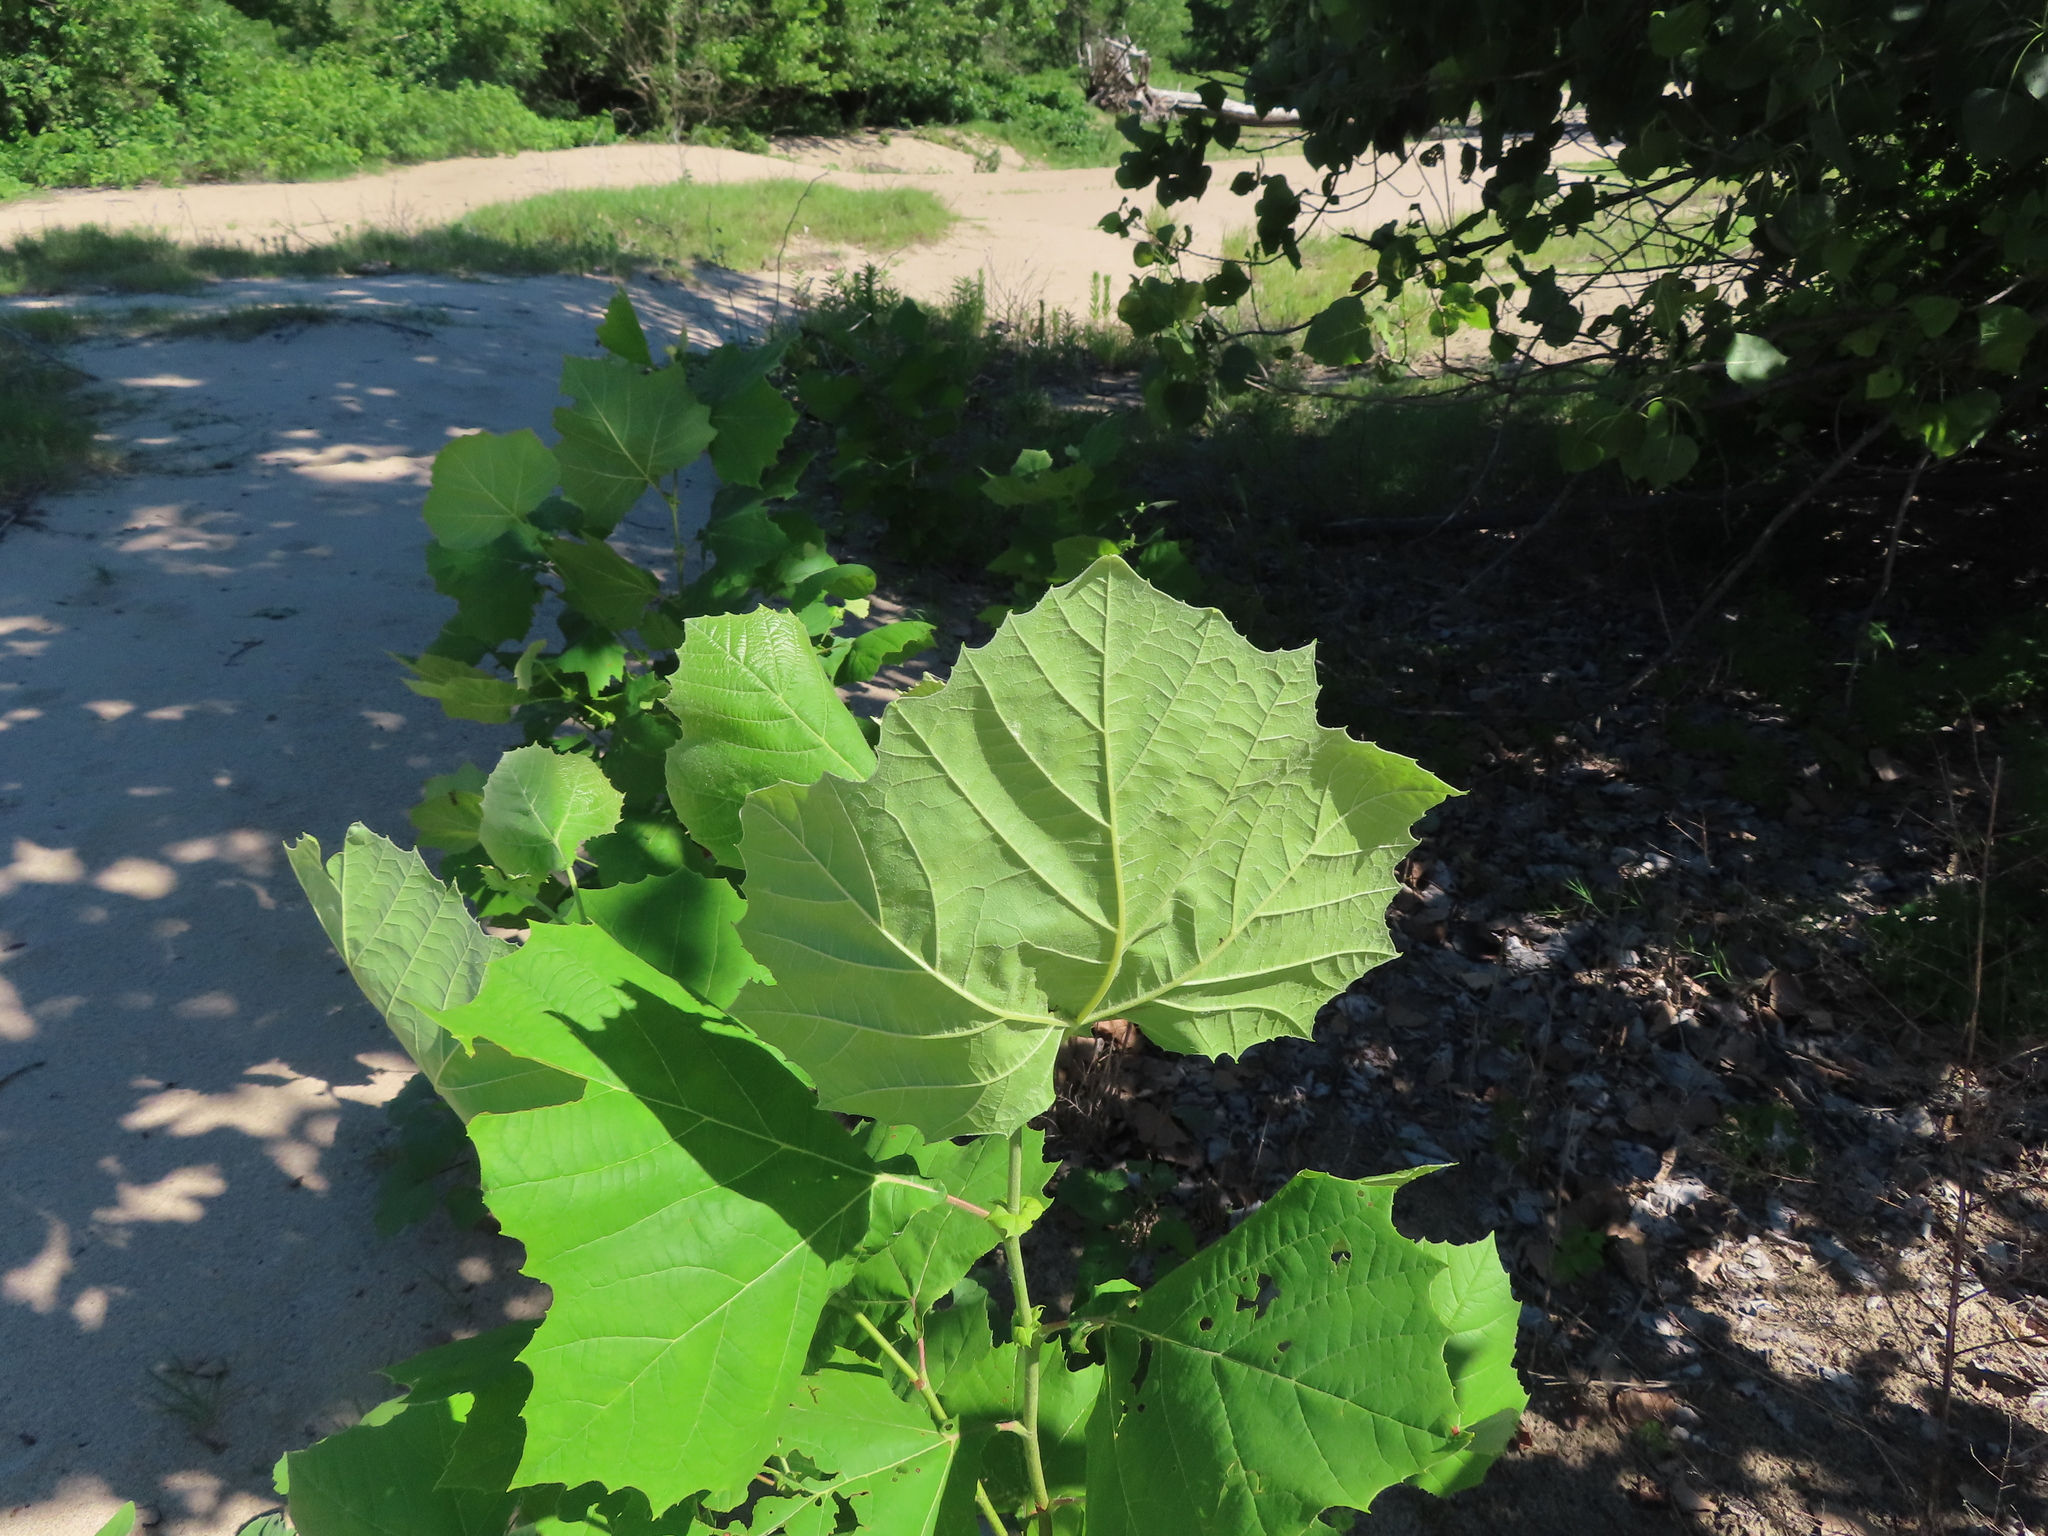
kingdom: Plantae
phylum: Tracheophyta
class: Magnoliopsida
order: Proteales
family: Platanaceae
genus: Platanus
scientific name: Platanus occidentalis
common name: American sycamore
